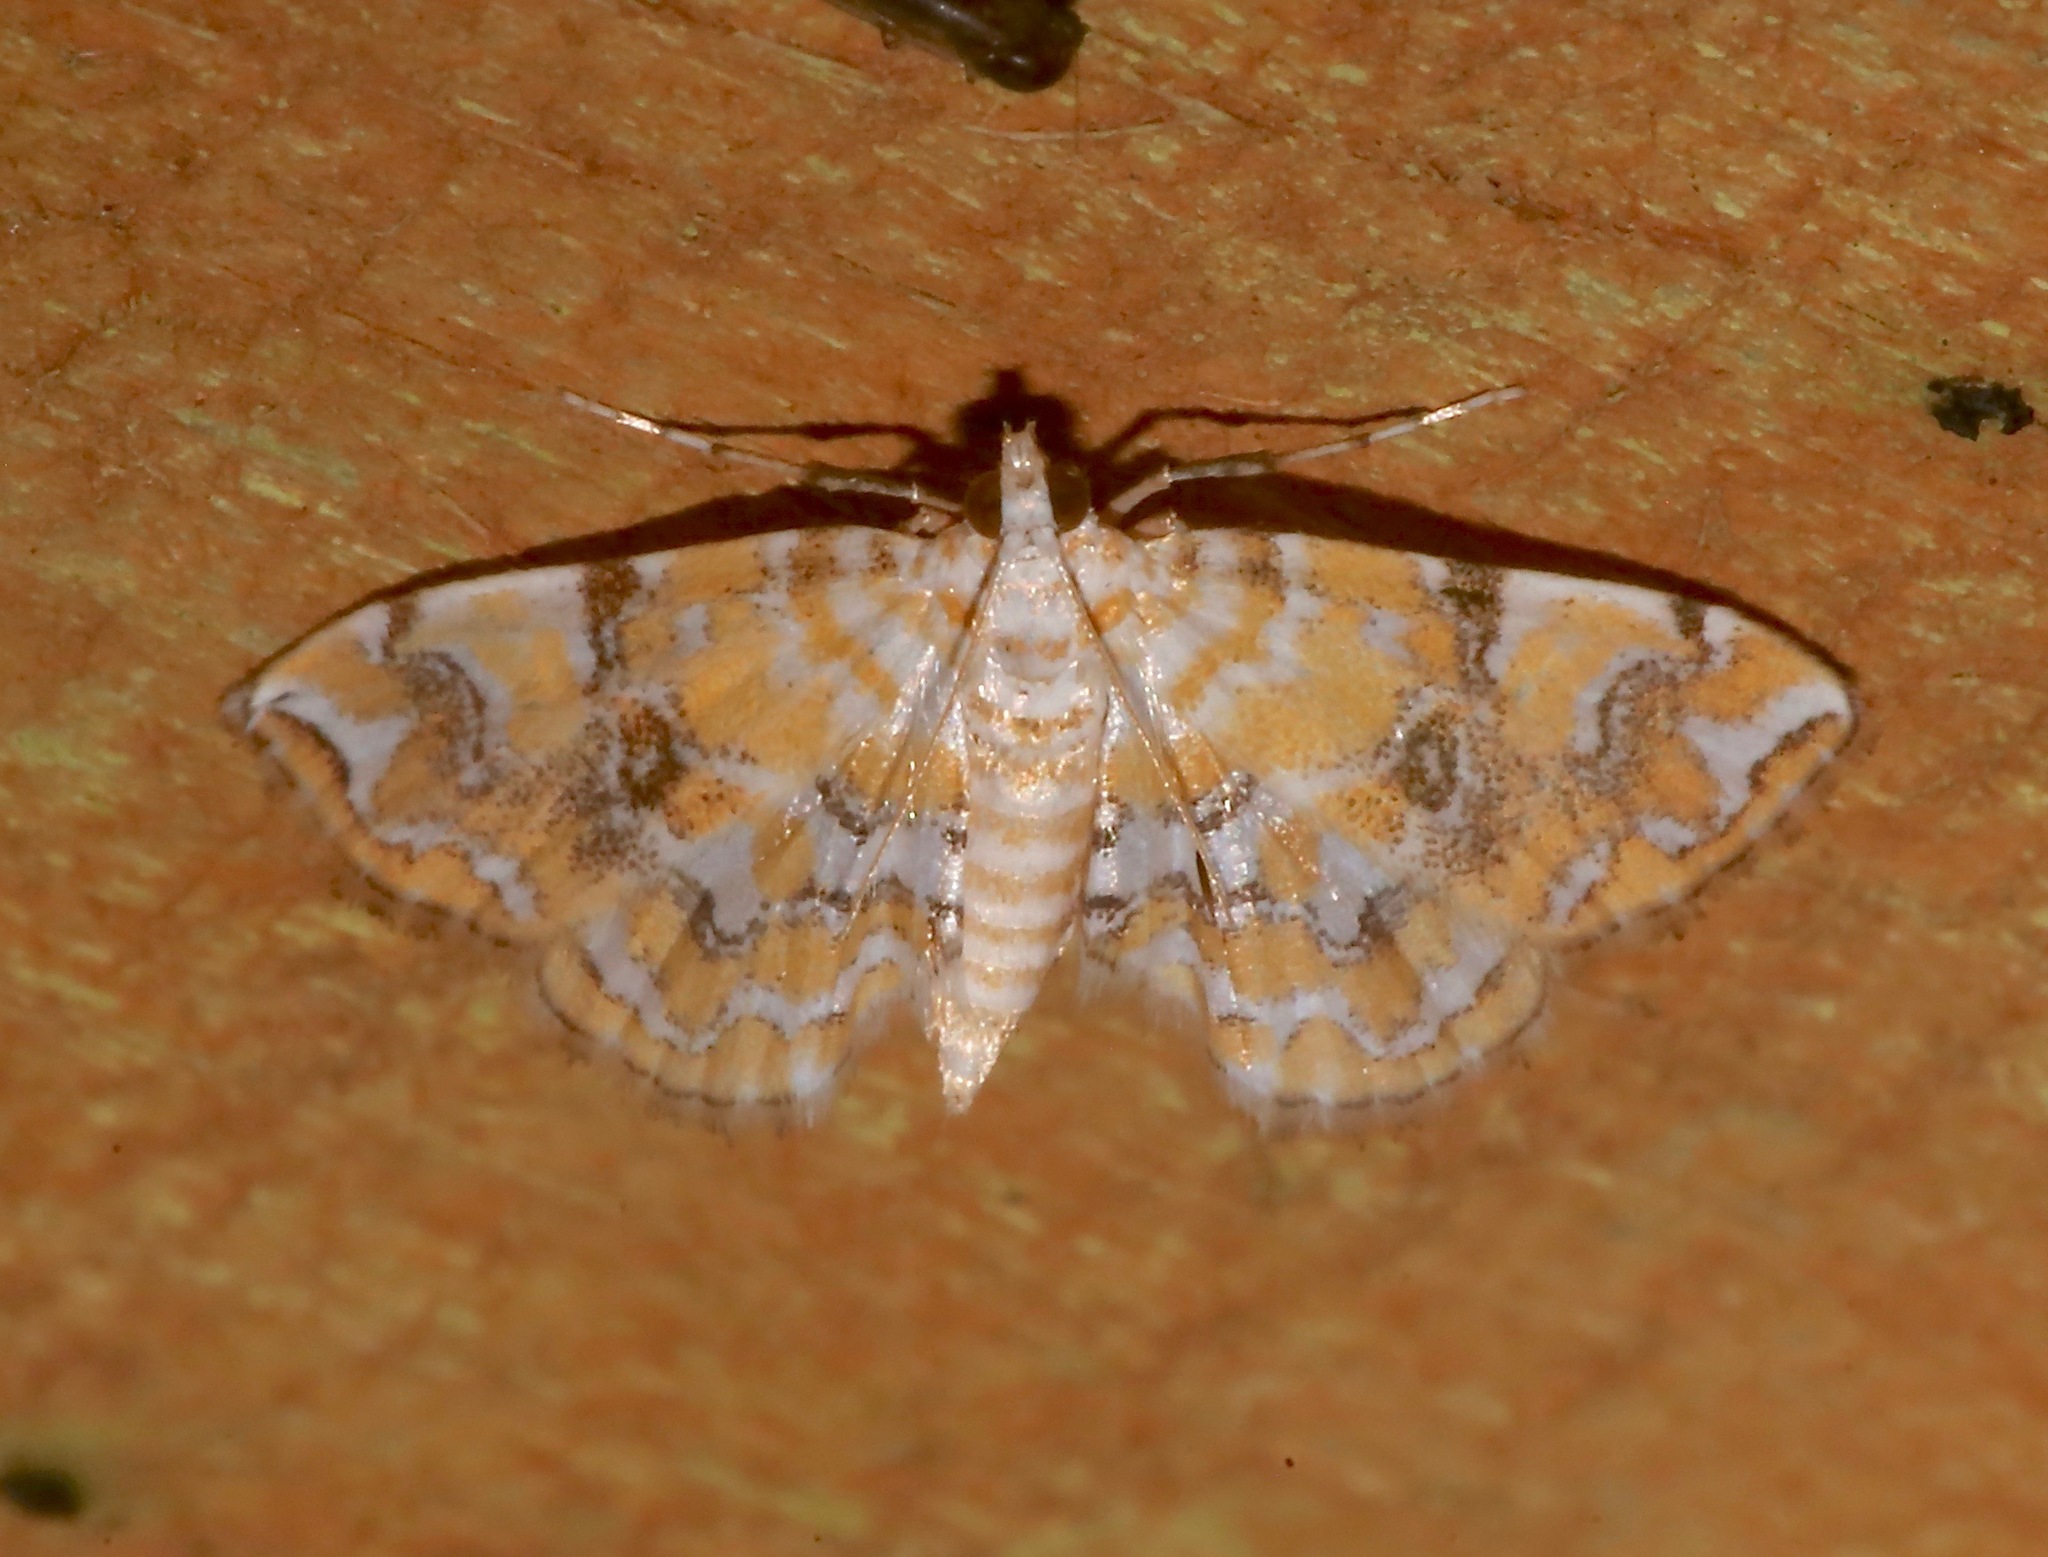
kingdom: Animalia
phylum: Arthropoda
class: Insecta
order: Lepidoptera
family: Crambidae
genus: Elophila
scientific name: Elophila faulalis
